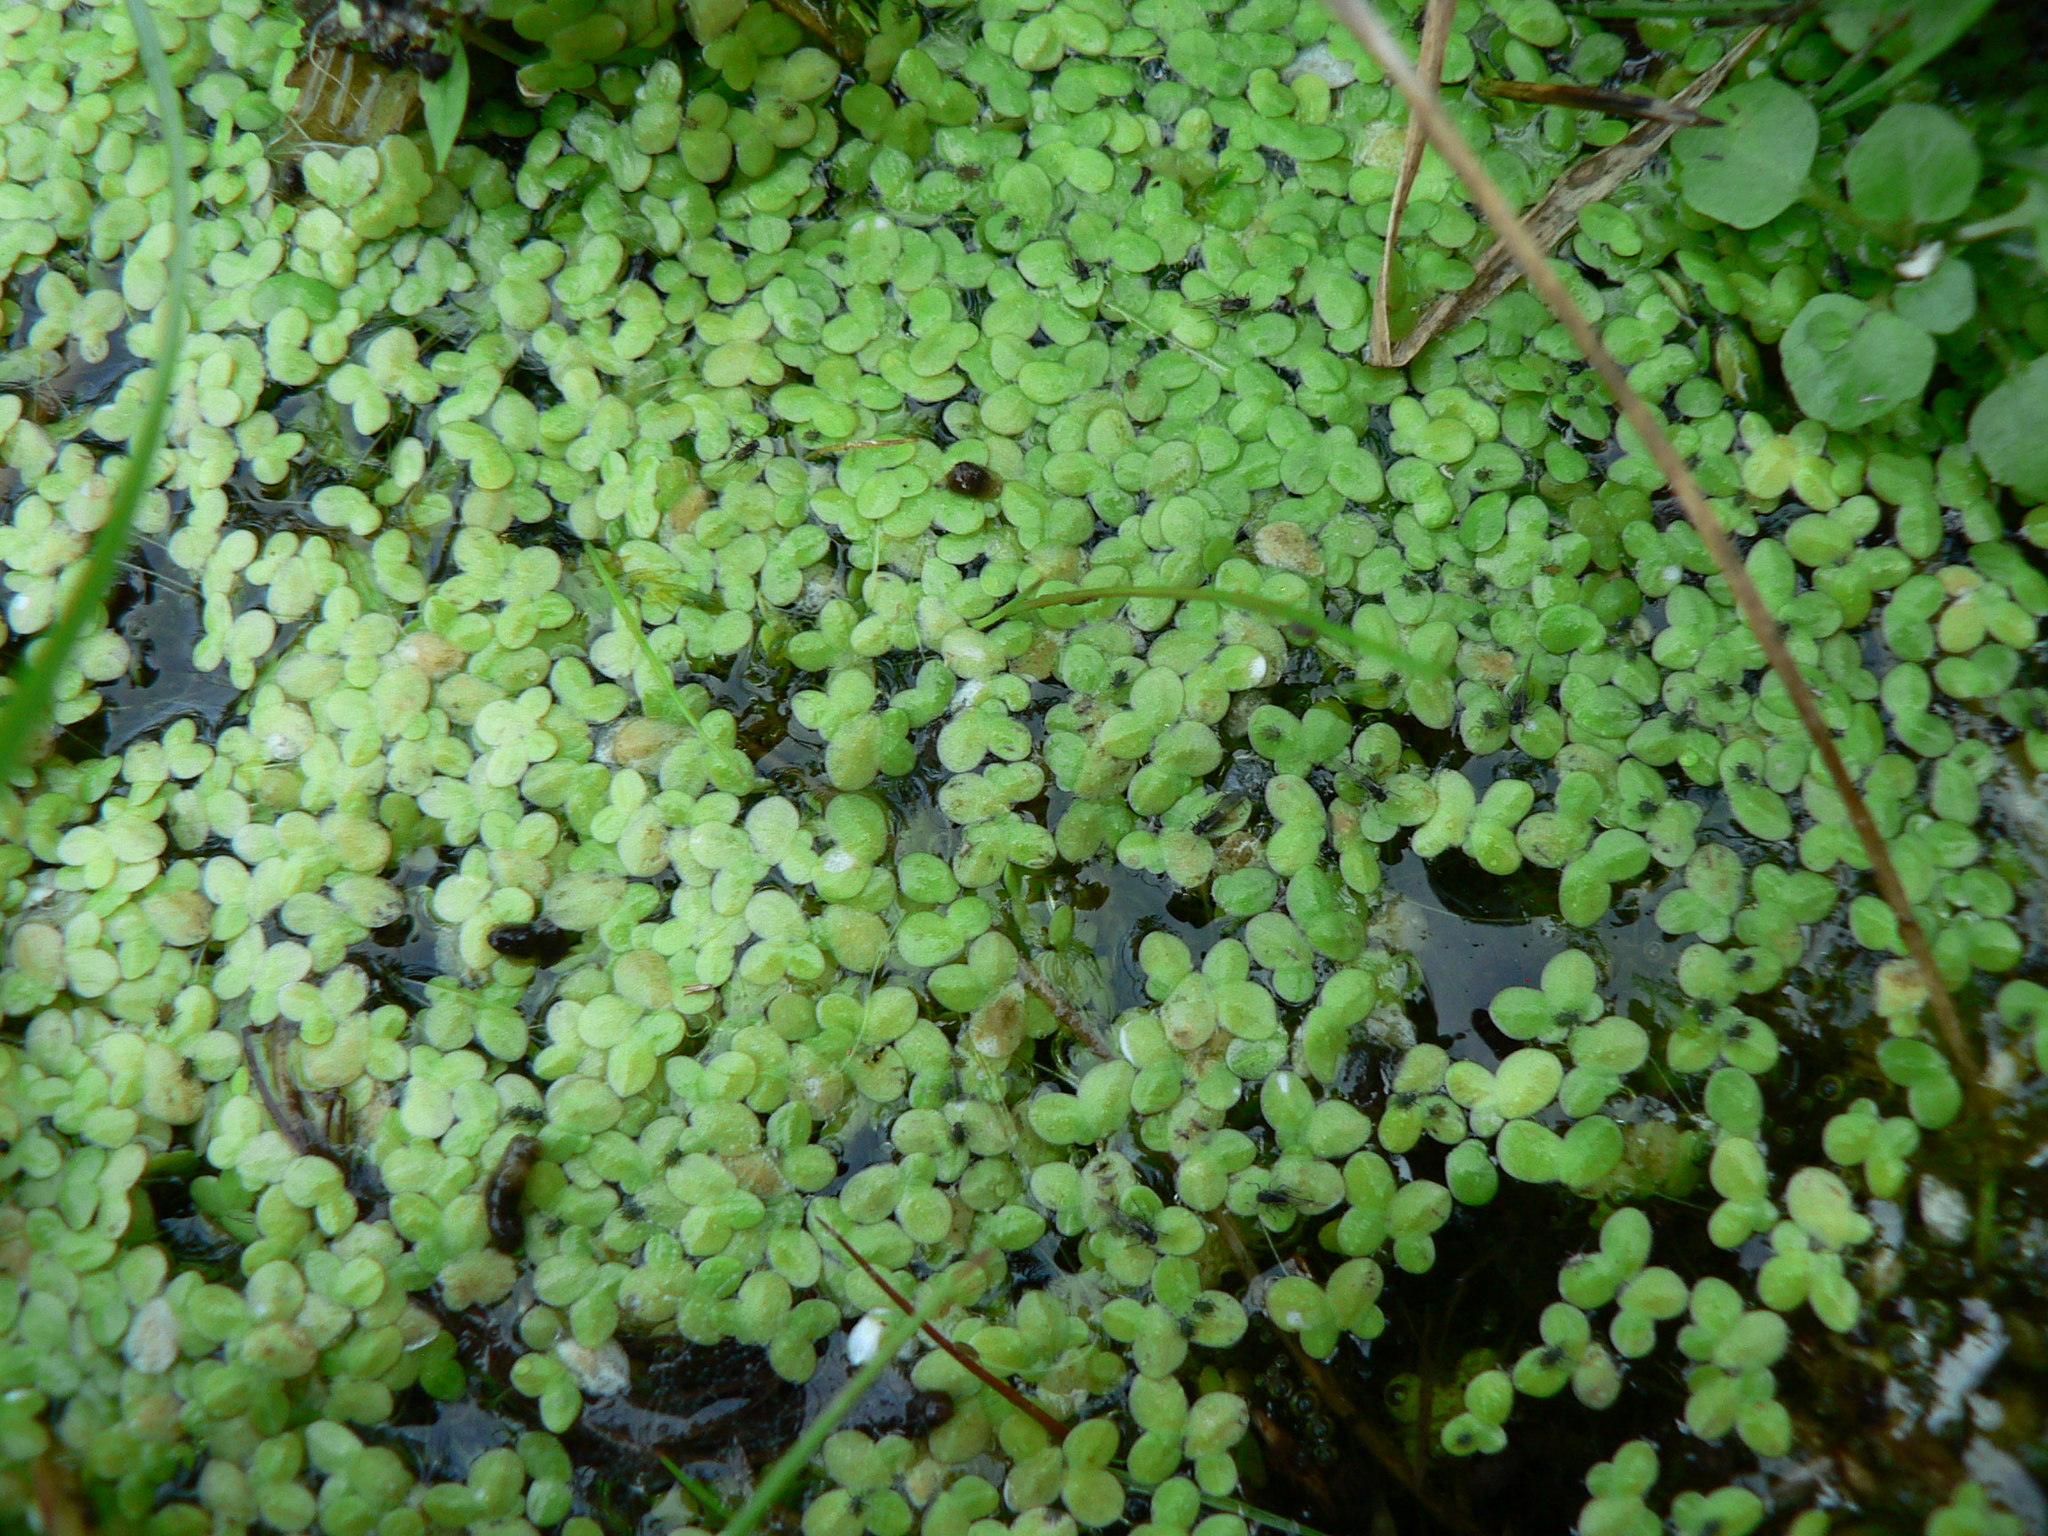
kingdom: Plantae
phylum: Tracheophyta
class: Liliopsida
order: Alismatales
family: Araceae
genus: Lemna
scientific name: Lemna minor
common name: Common duckweed
